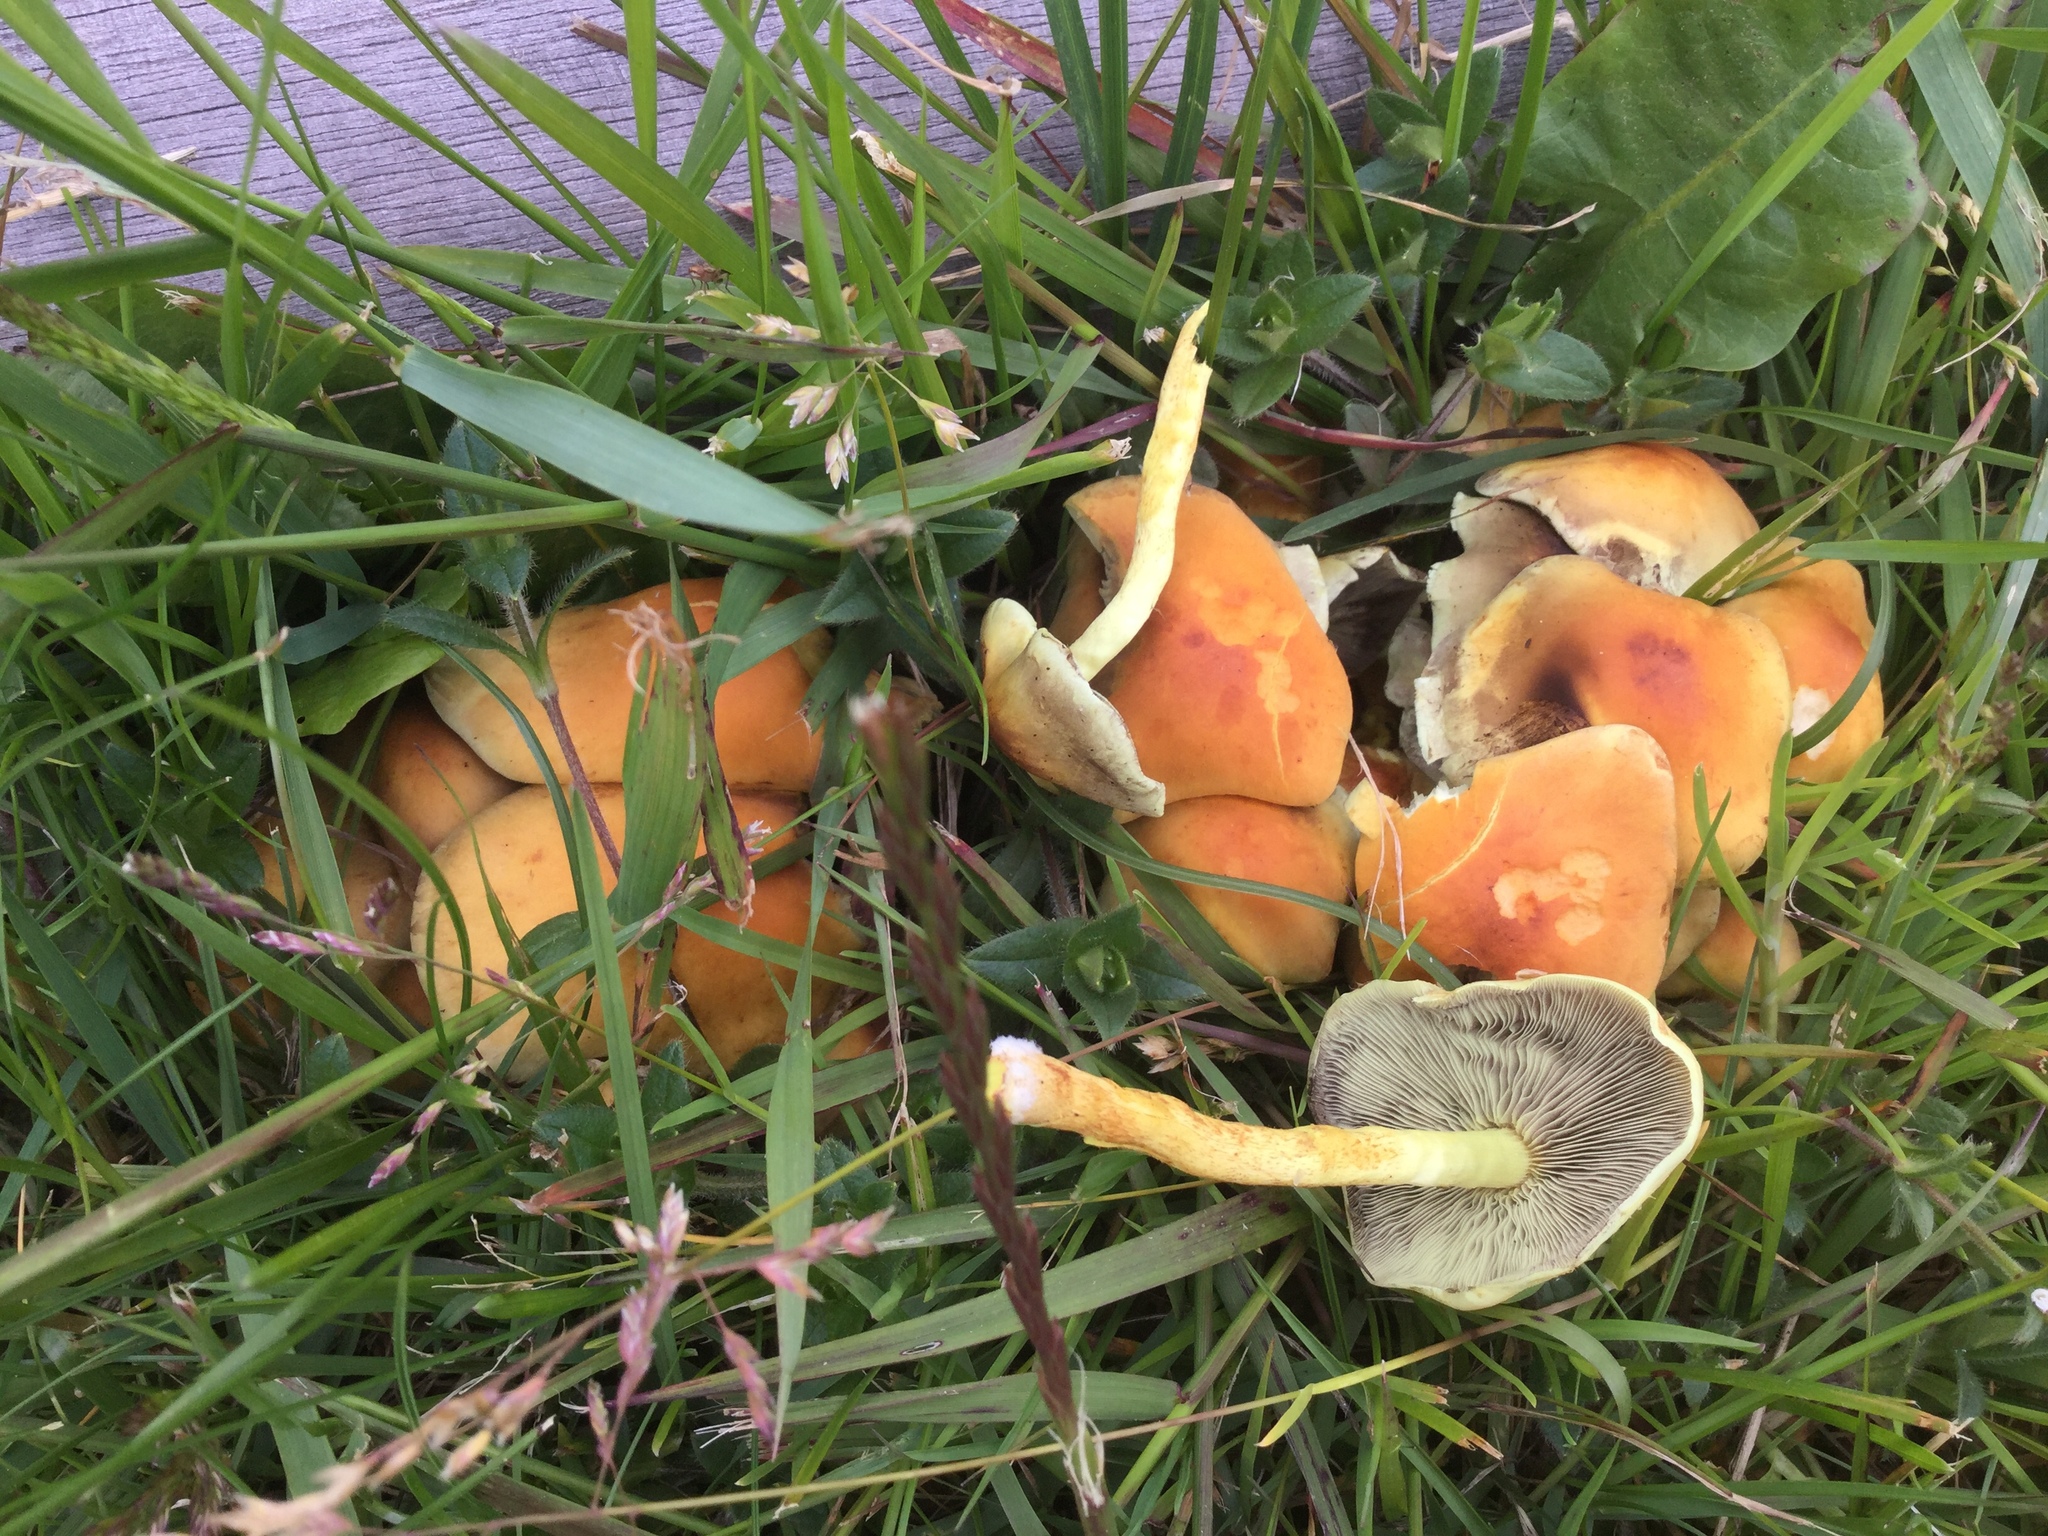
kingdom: Fungi
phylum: Basidiomycota
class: Agaricomycetes
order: Agaricales
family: Strophariaceae
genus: Hypholoma
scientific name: Hypholoma fasciculare
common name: Sulphur tuft
